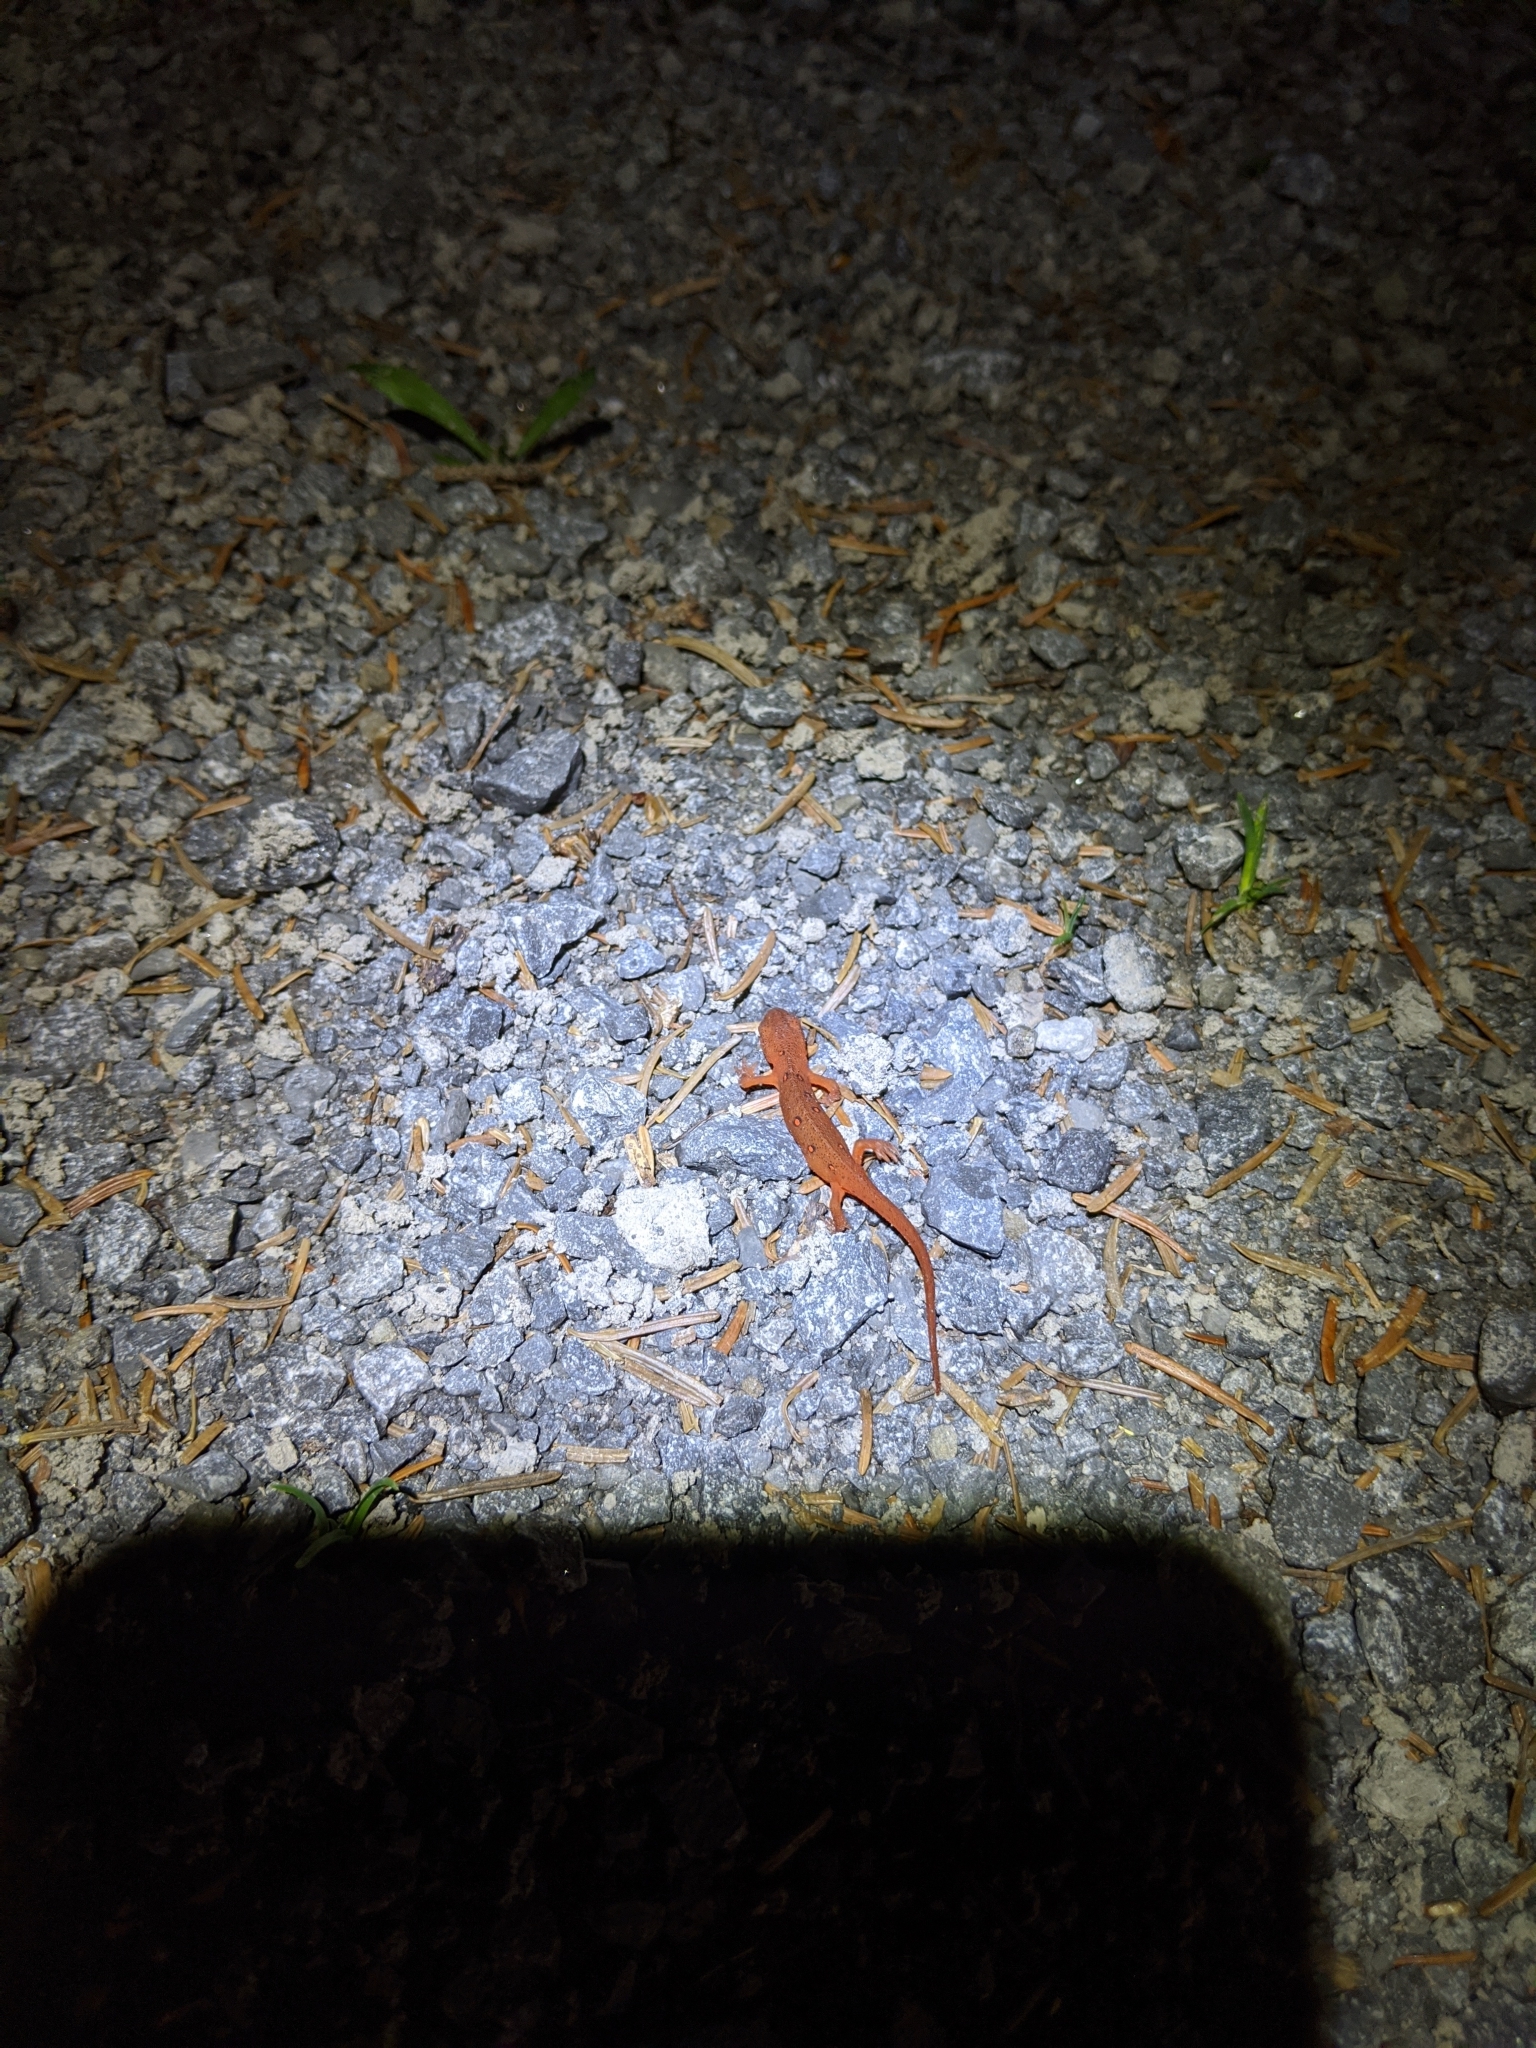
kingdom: Animalia
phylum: Chordata
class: Amphibia
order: Caudata
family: Salamandridae
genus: Notophthalmus
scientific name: Notophthalmus viridescens
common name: Eastern newt
